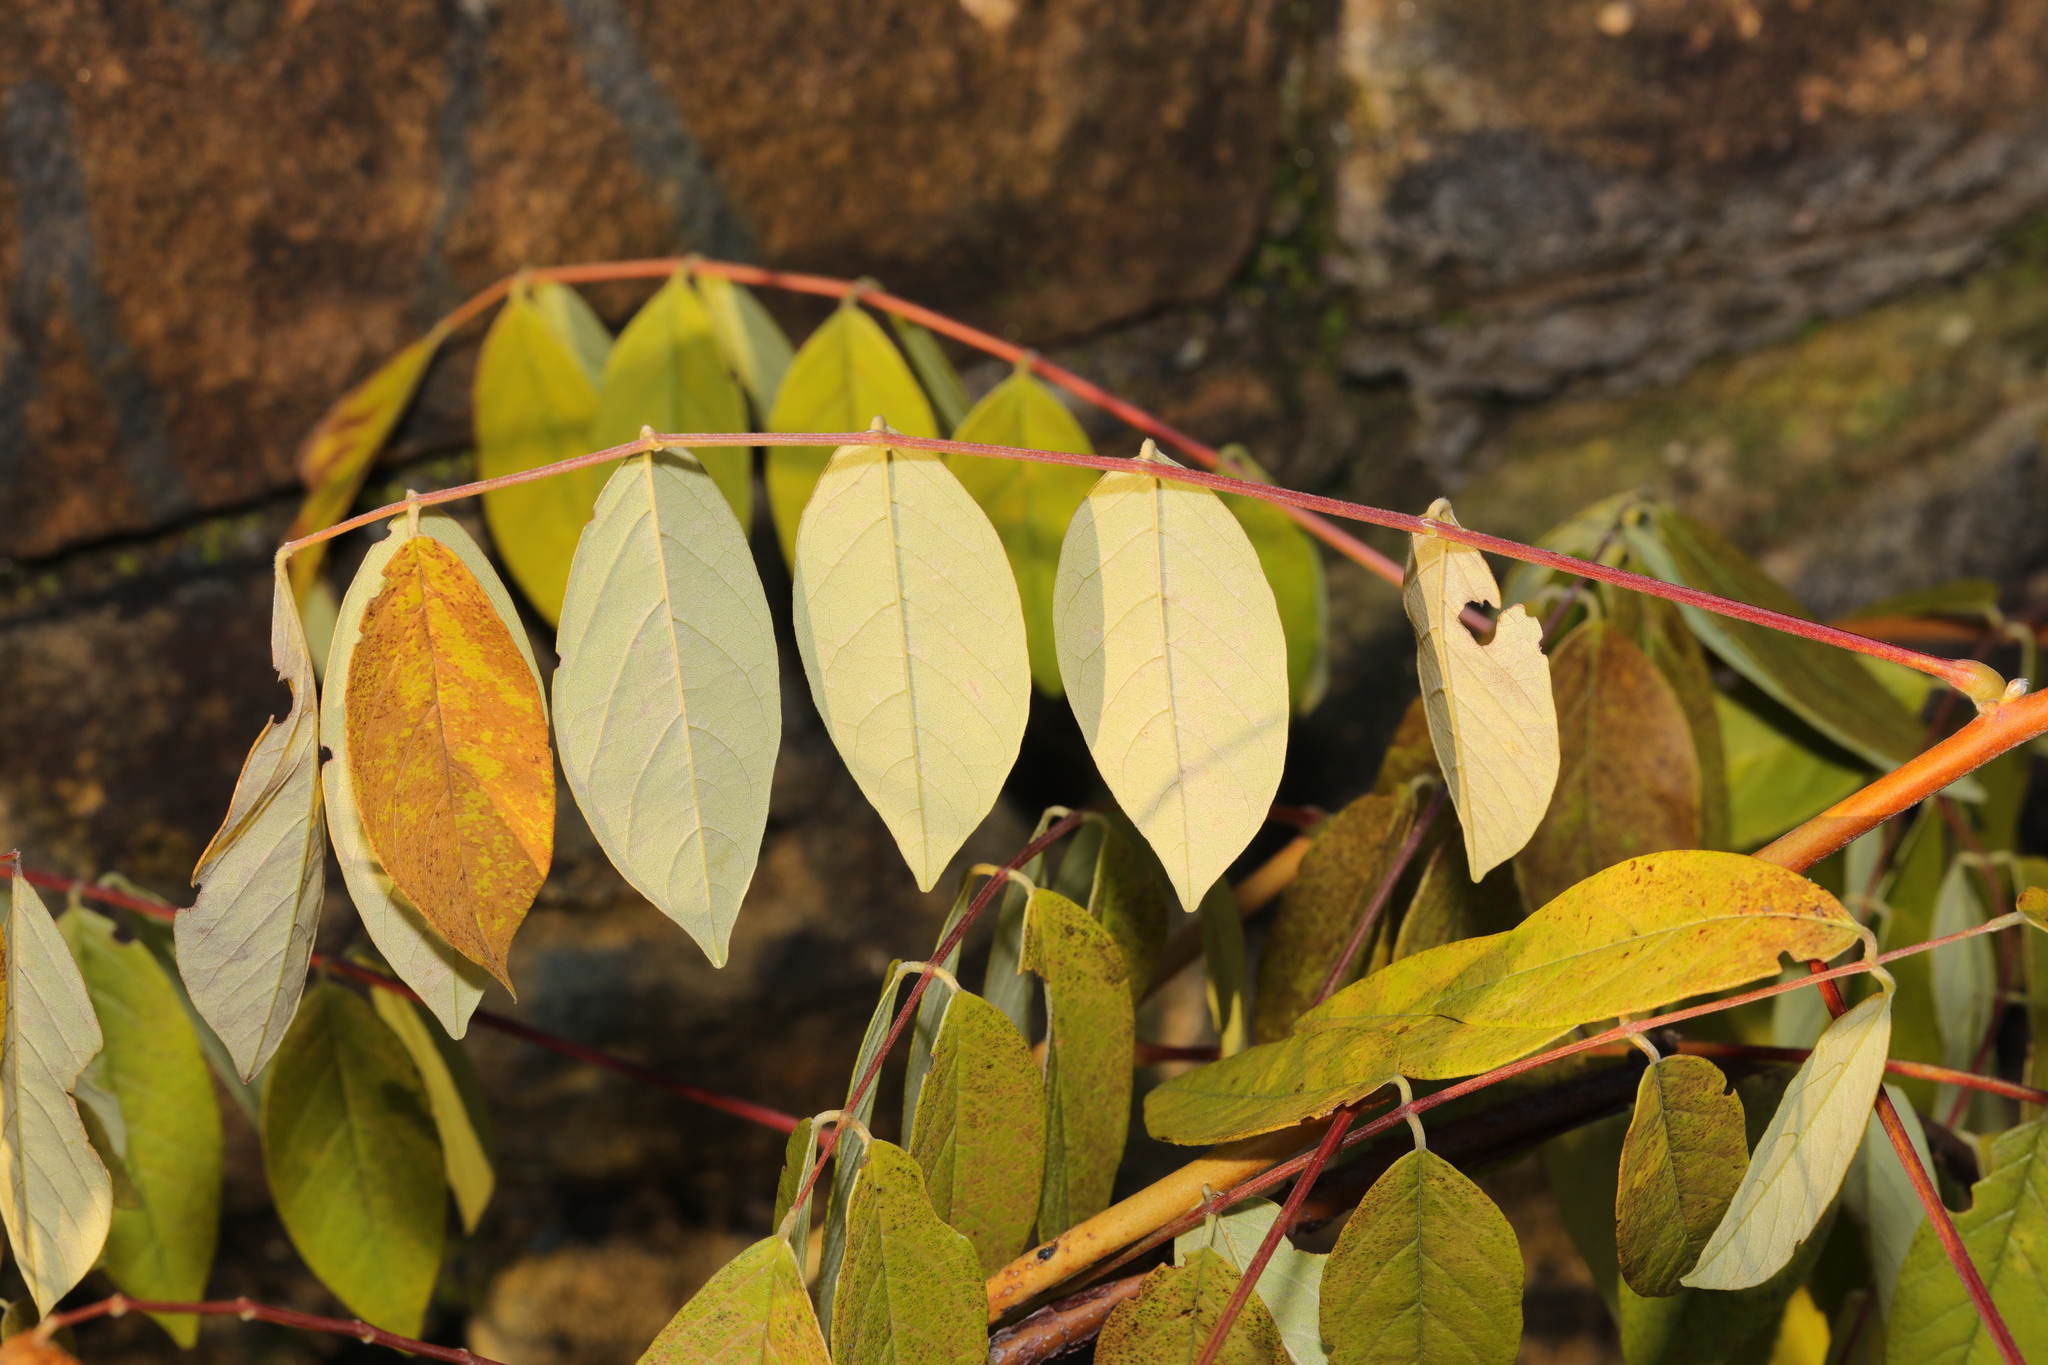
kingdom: Plantae
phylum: Tracheophyta
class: Magnoliopsida
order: Fabales
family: Fabaceae
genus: Wisteria
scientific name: Wisteria sinensis
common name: Chinese wisteria
